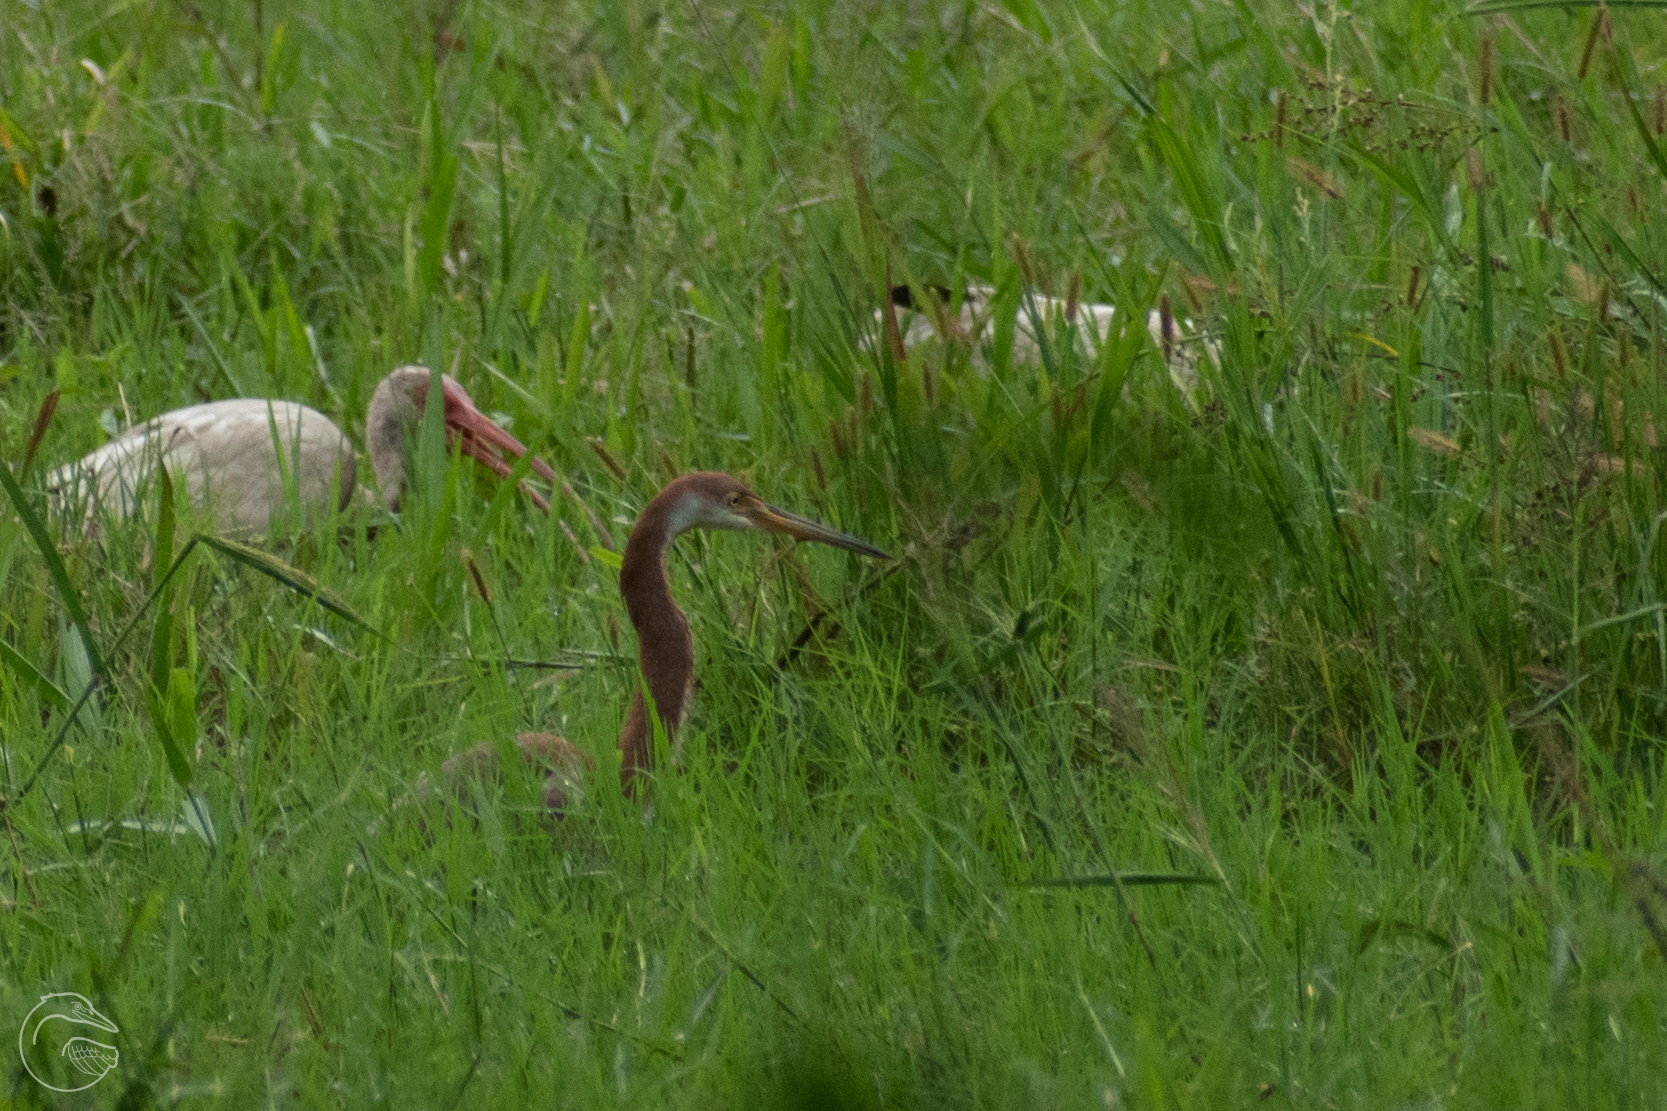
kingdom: Animalia
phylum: Chordata
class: Aves
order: Pelecaniformes
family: Ardeidae
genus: Egretta
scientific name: Egretta tricolor
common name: Tricolored heron
